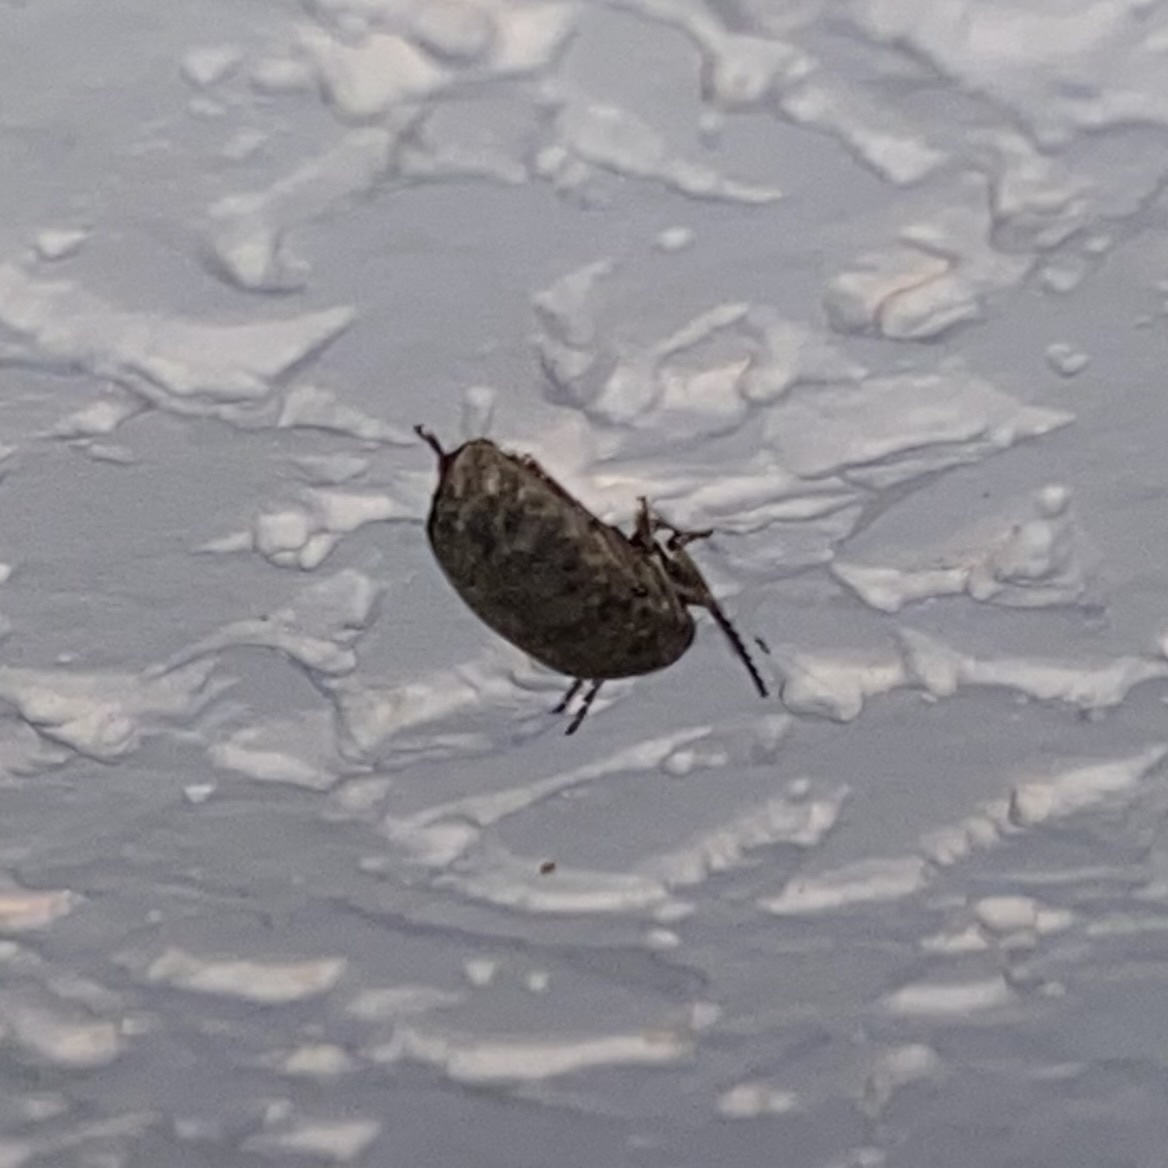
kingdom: Animalia
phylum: Arthropoda
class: Insecta
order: Coleoptera
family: Chrysomelidae
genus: Amblycerus
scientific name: Amblycerus robiniae
